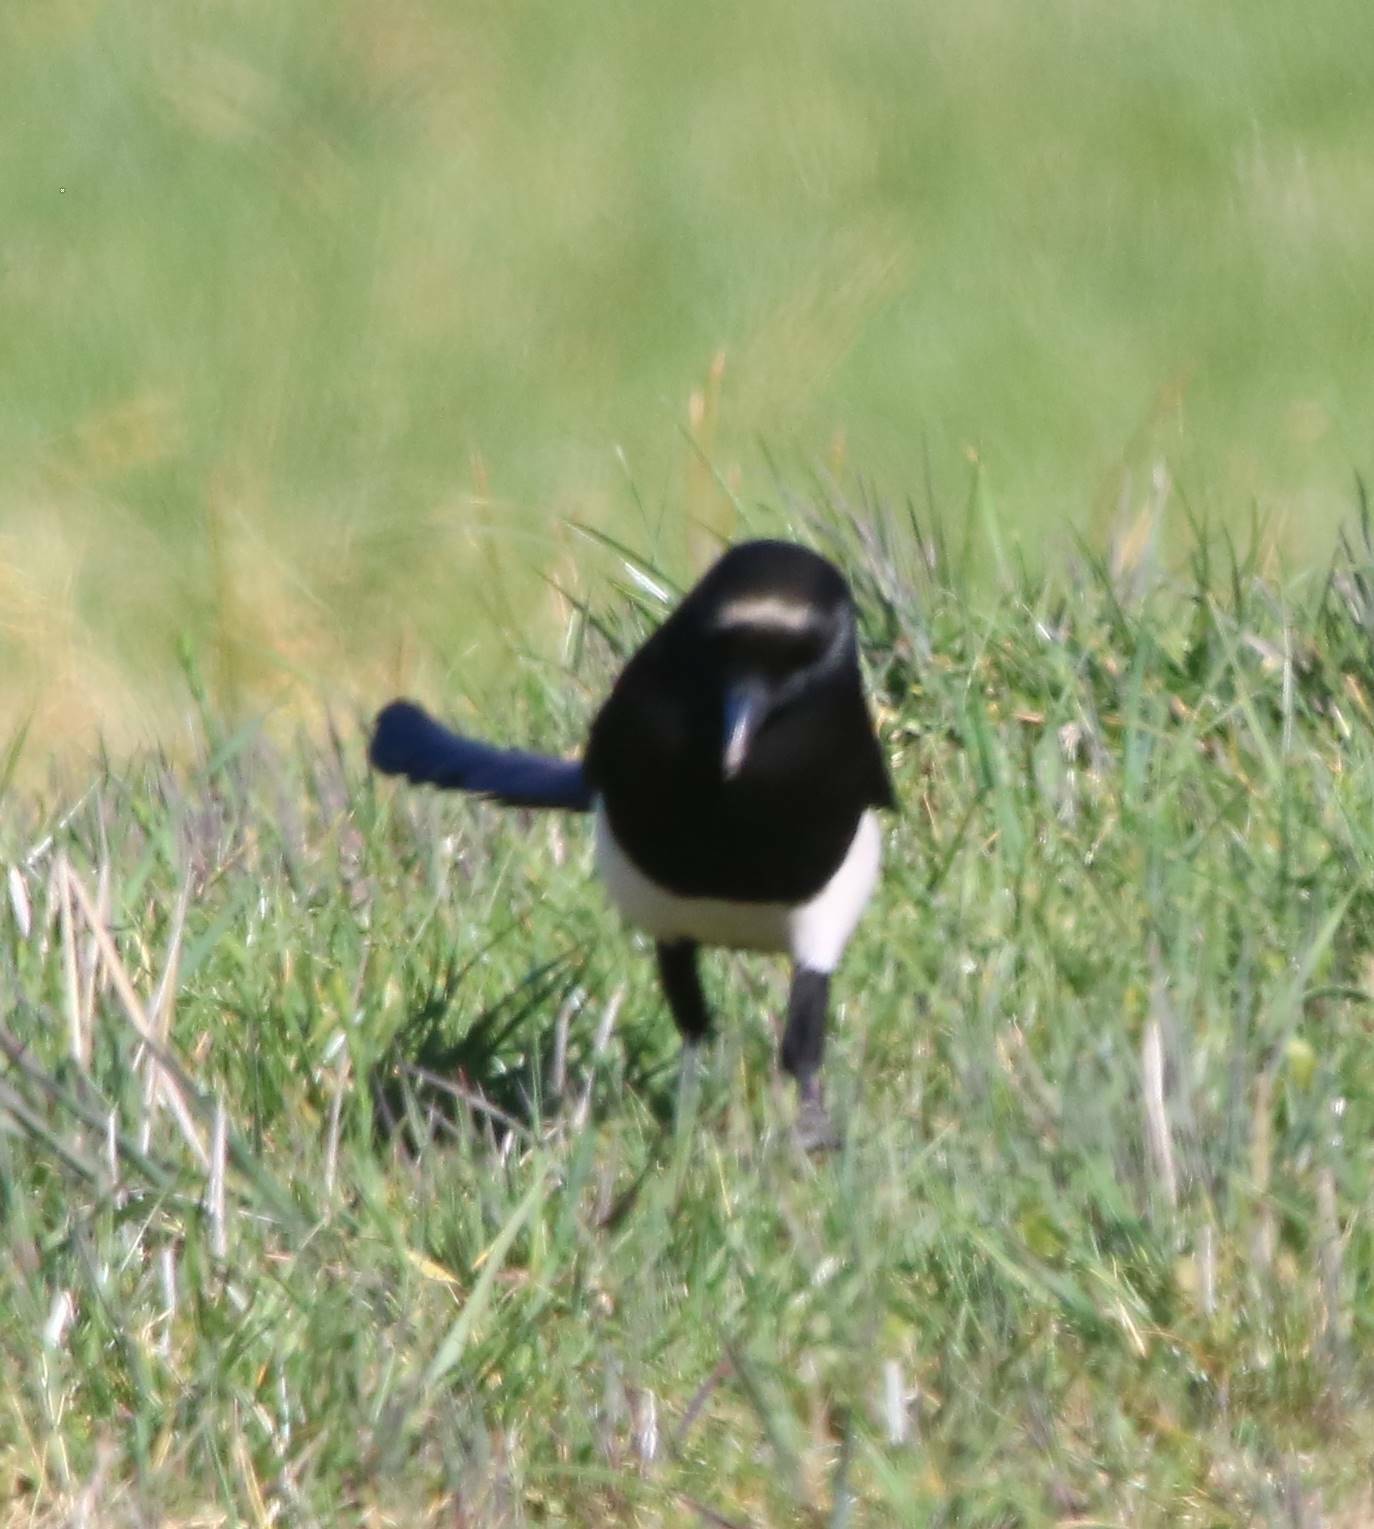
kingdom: Animalia
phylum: Chordata
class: Aves
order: Passeriformes
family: Corvidae
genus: Pica
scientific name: Pica mauritanica
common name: Maghreb magpie
